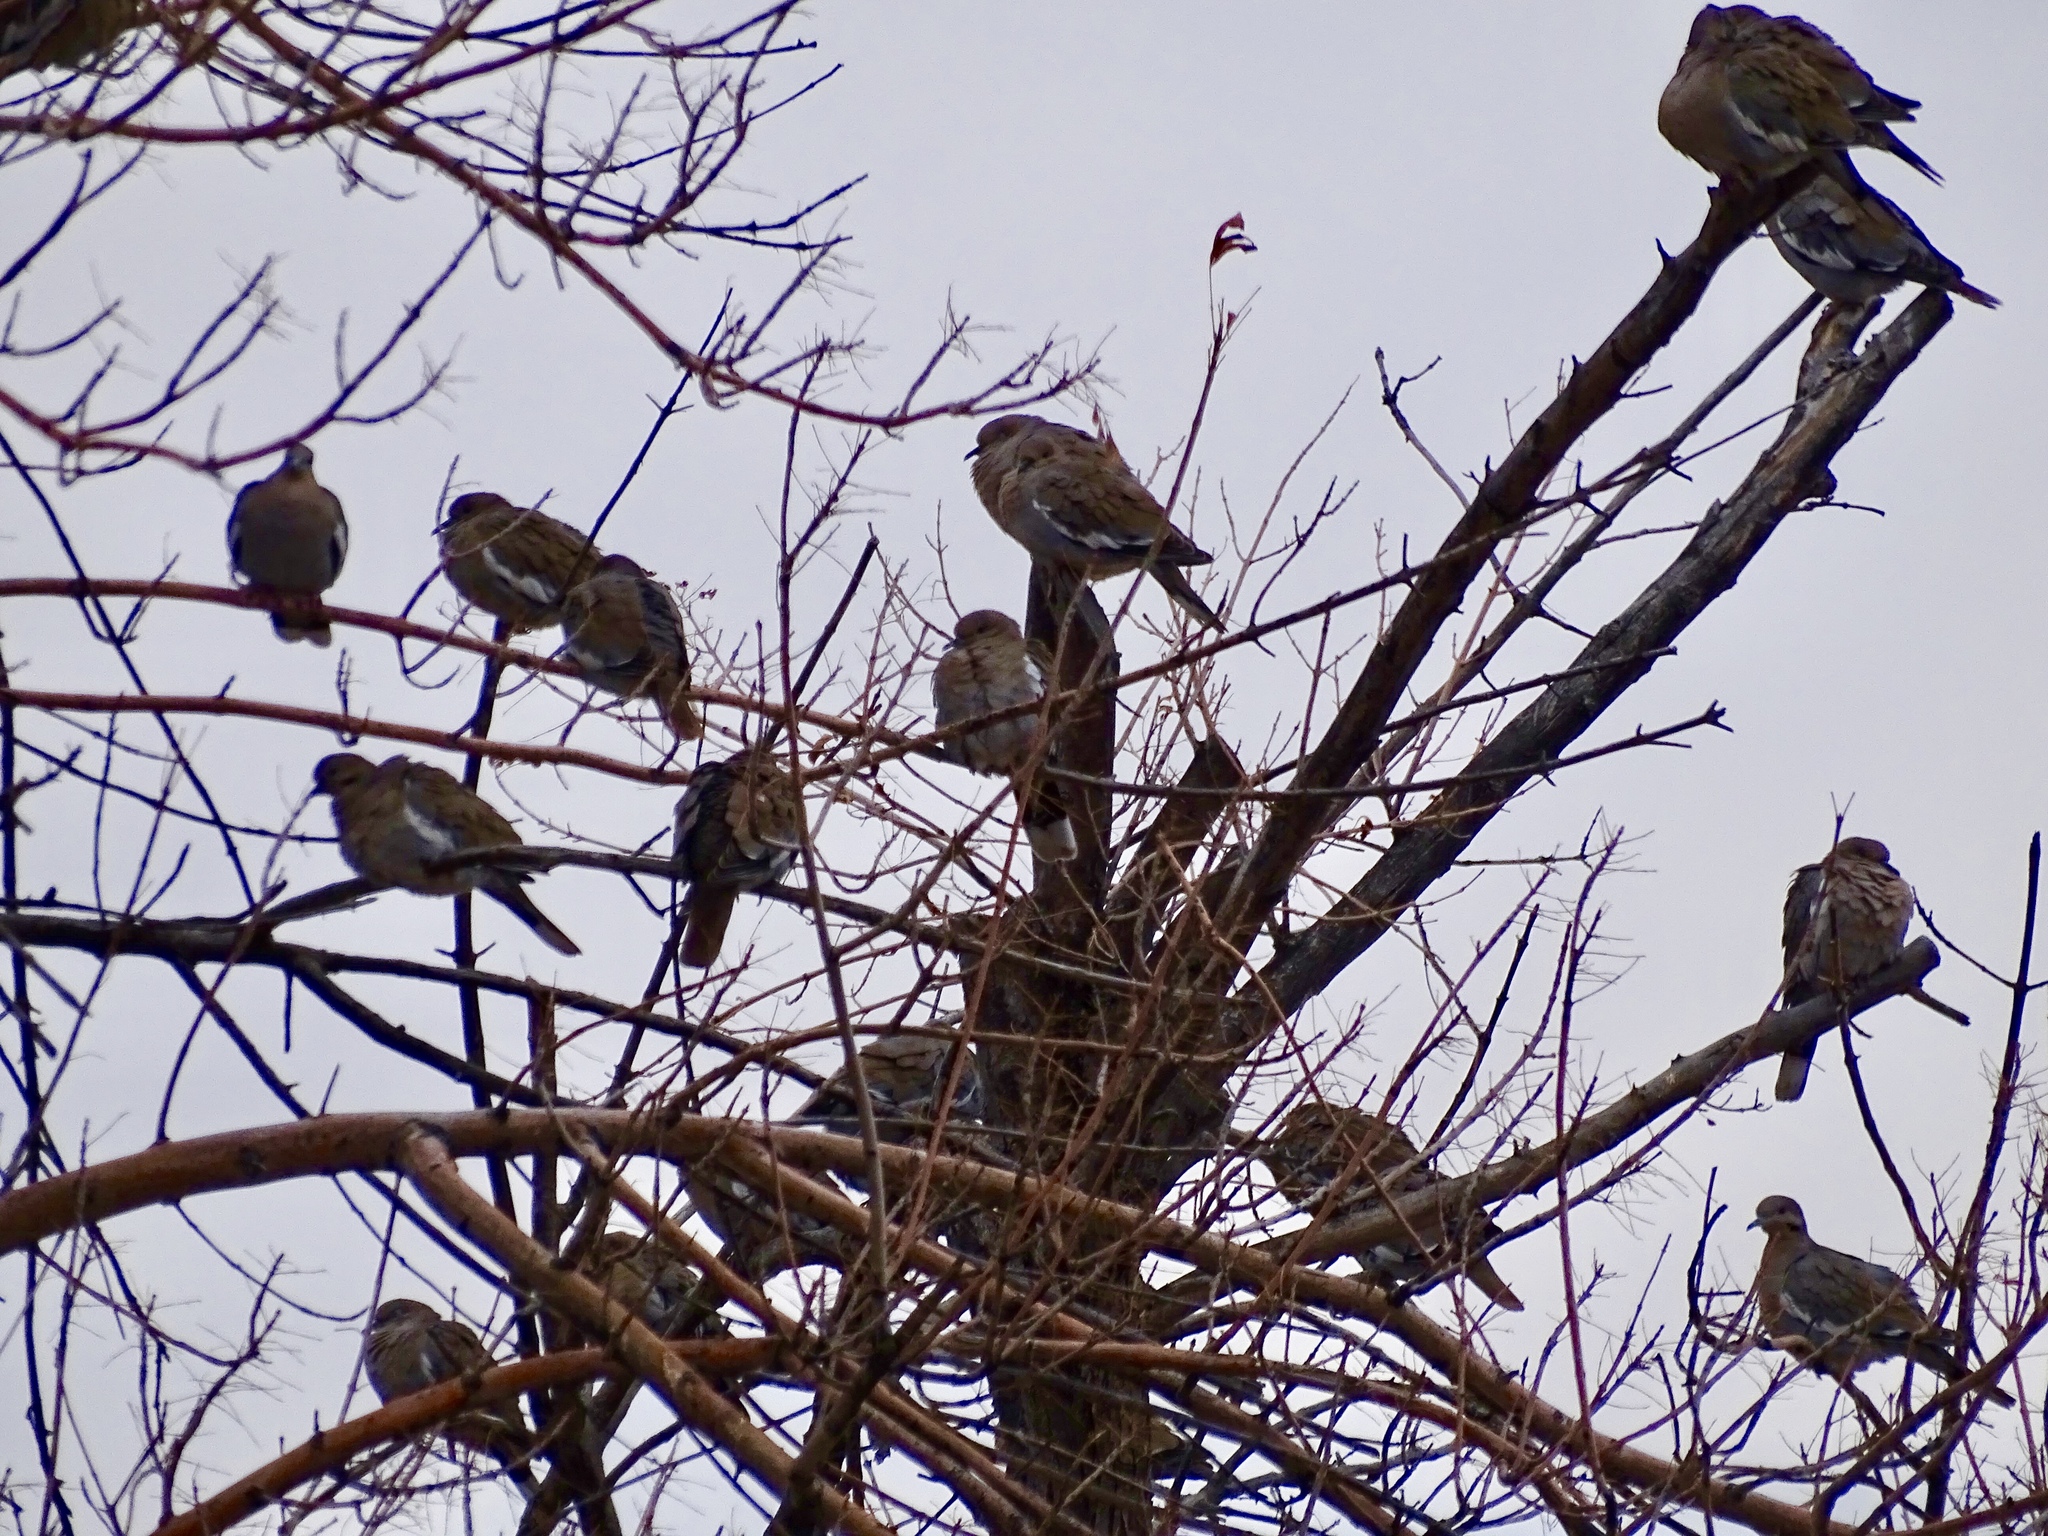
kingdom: Animalia
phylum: Chordata
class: Aves
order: Columbiformes
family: Columbidae
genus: Zenaida
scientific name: Zenaida asiatica
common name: White-winged dove
